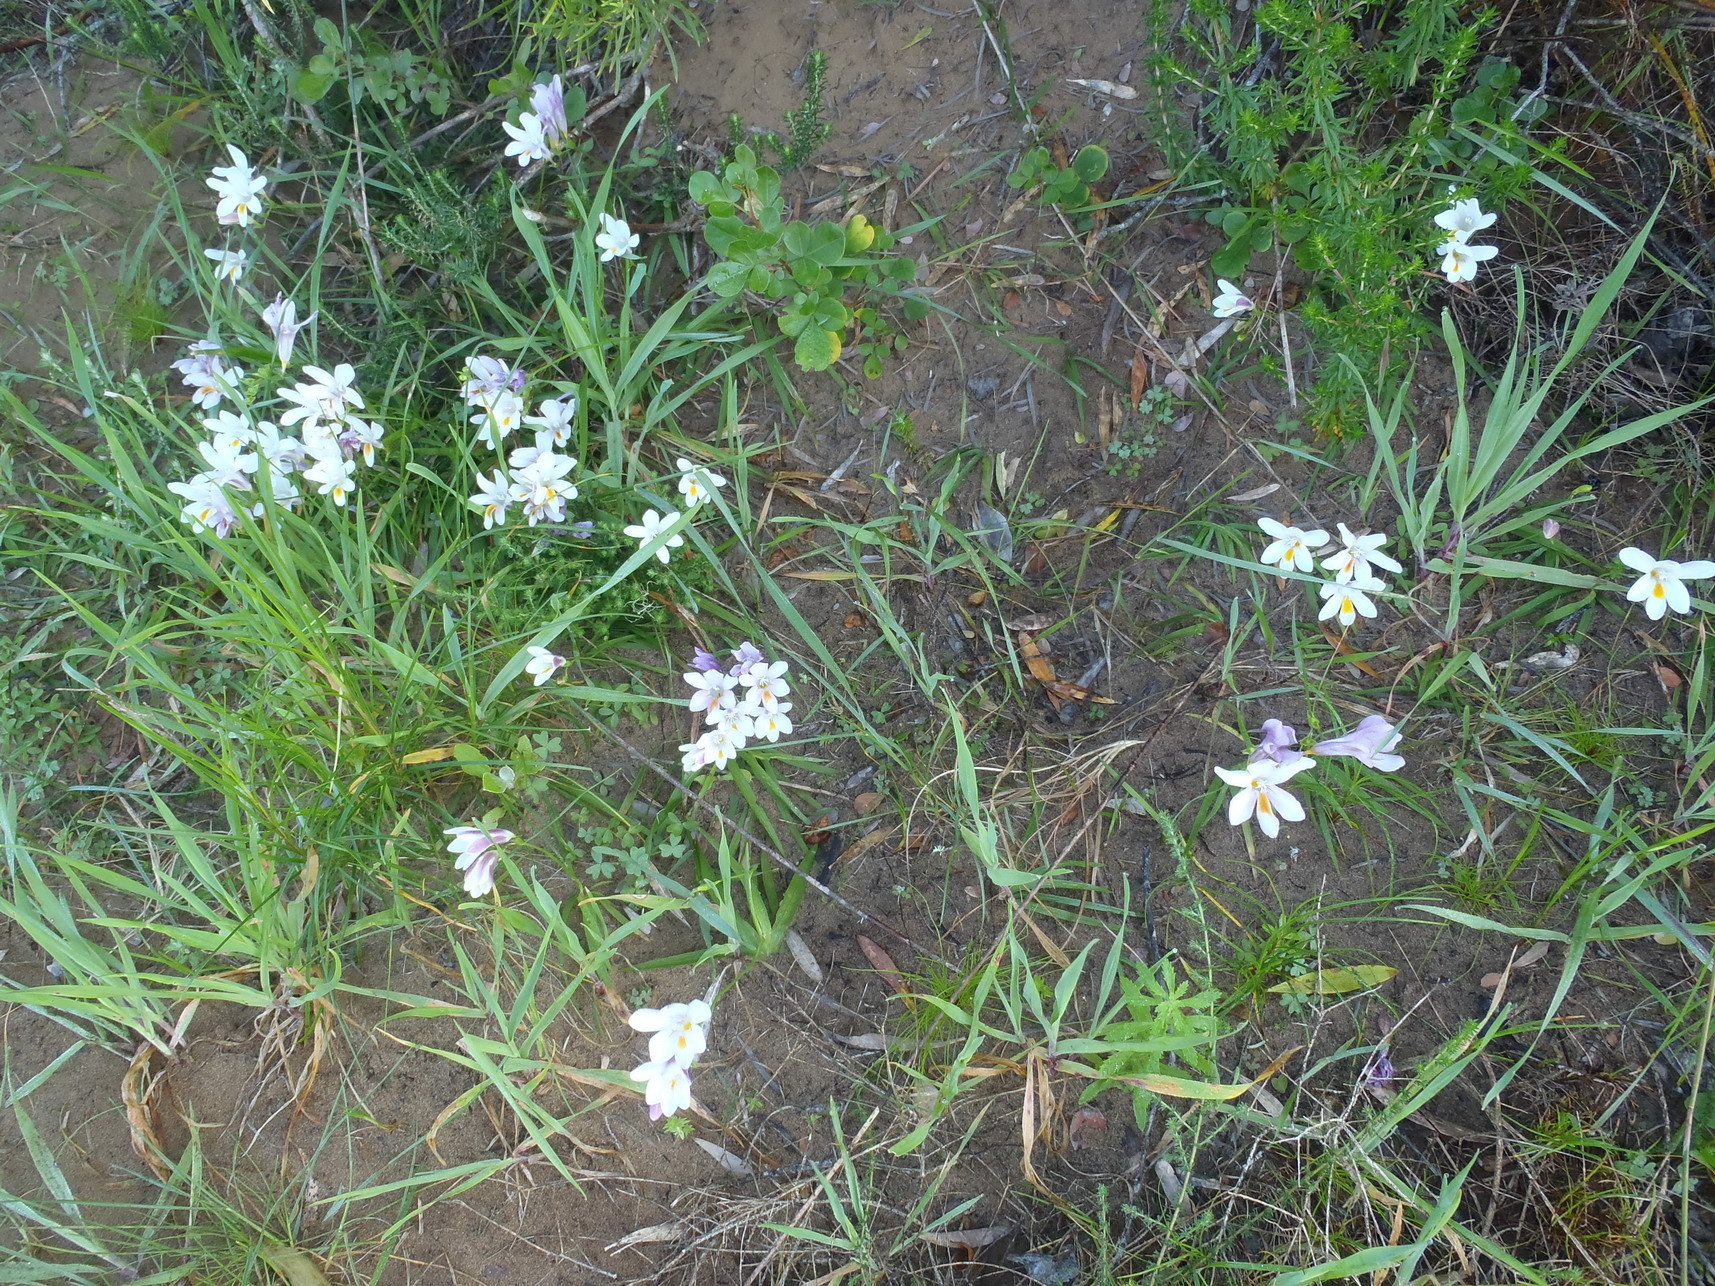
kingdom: Plantae
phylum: Tracheophyta
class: Liliopsida
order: Asparagales
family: Iridaceae
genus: Freesia
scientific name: Freesia leichtlinii
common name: Freesia
